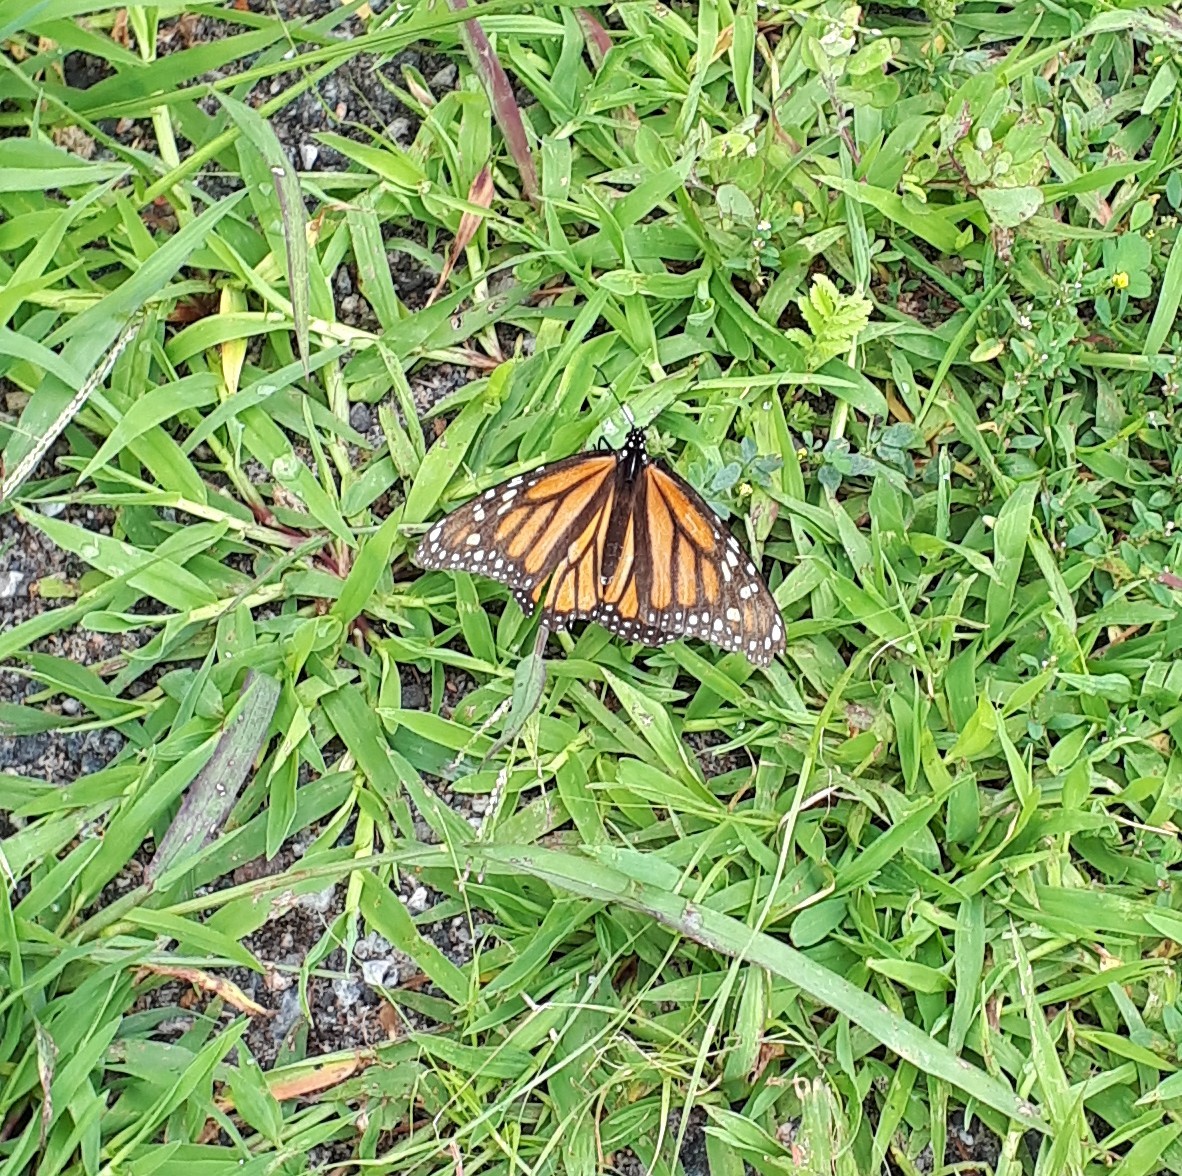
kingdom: Animalia
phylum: Arthropoda
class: Insecta
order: Lepidoptera
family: Nymphalidae
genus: Danaus
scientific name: Danaus plexippus
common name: Monarch
